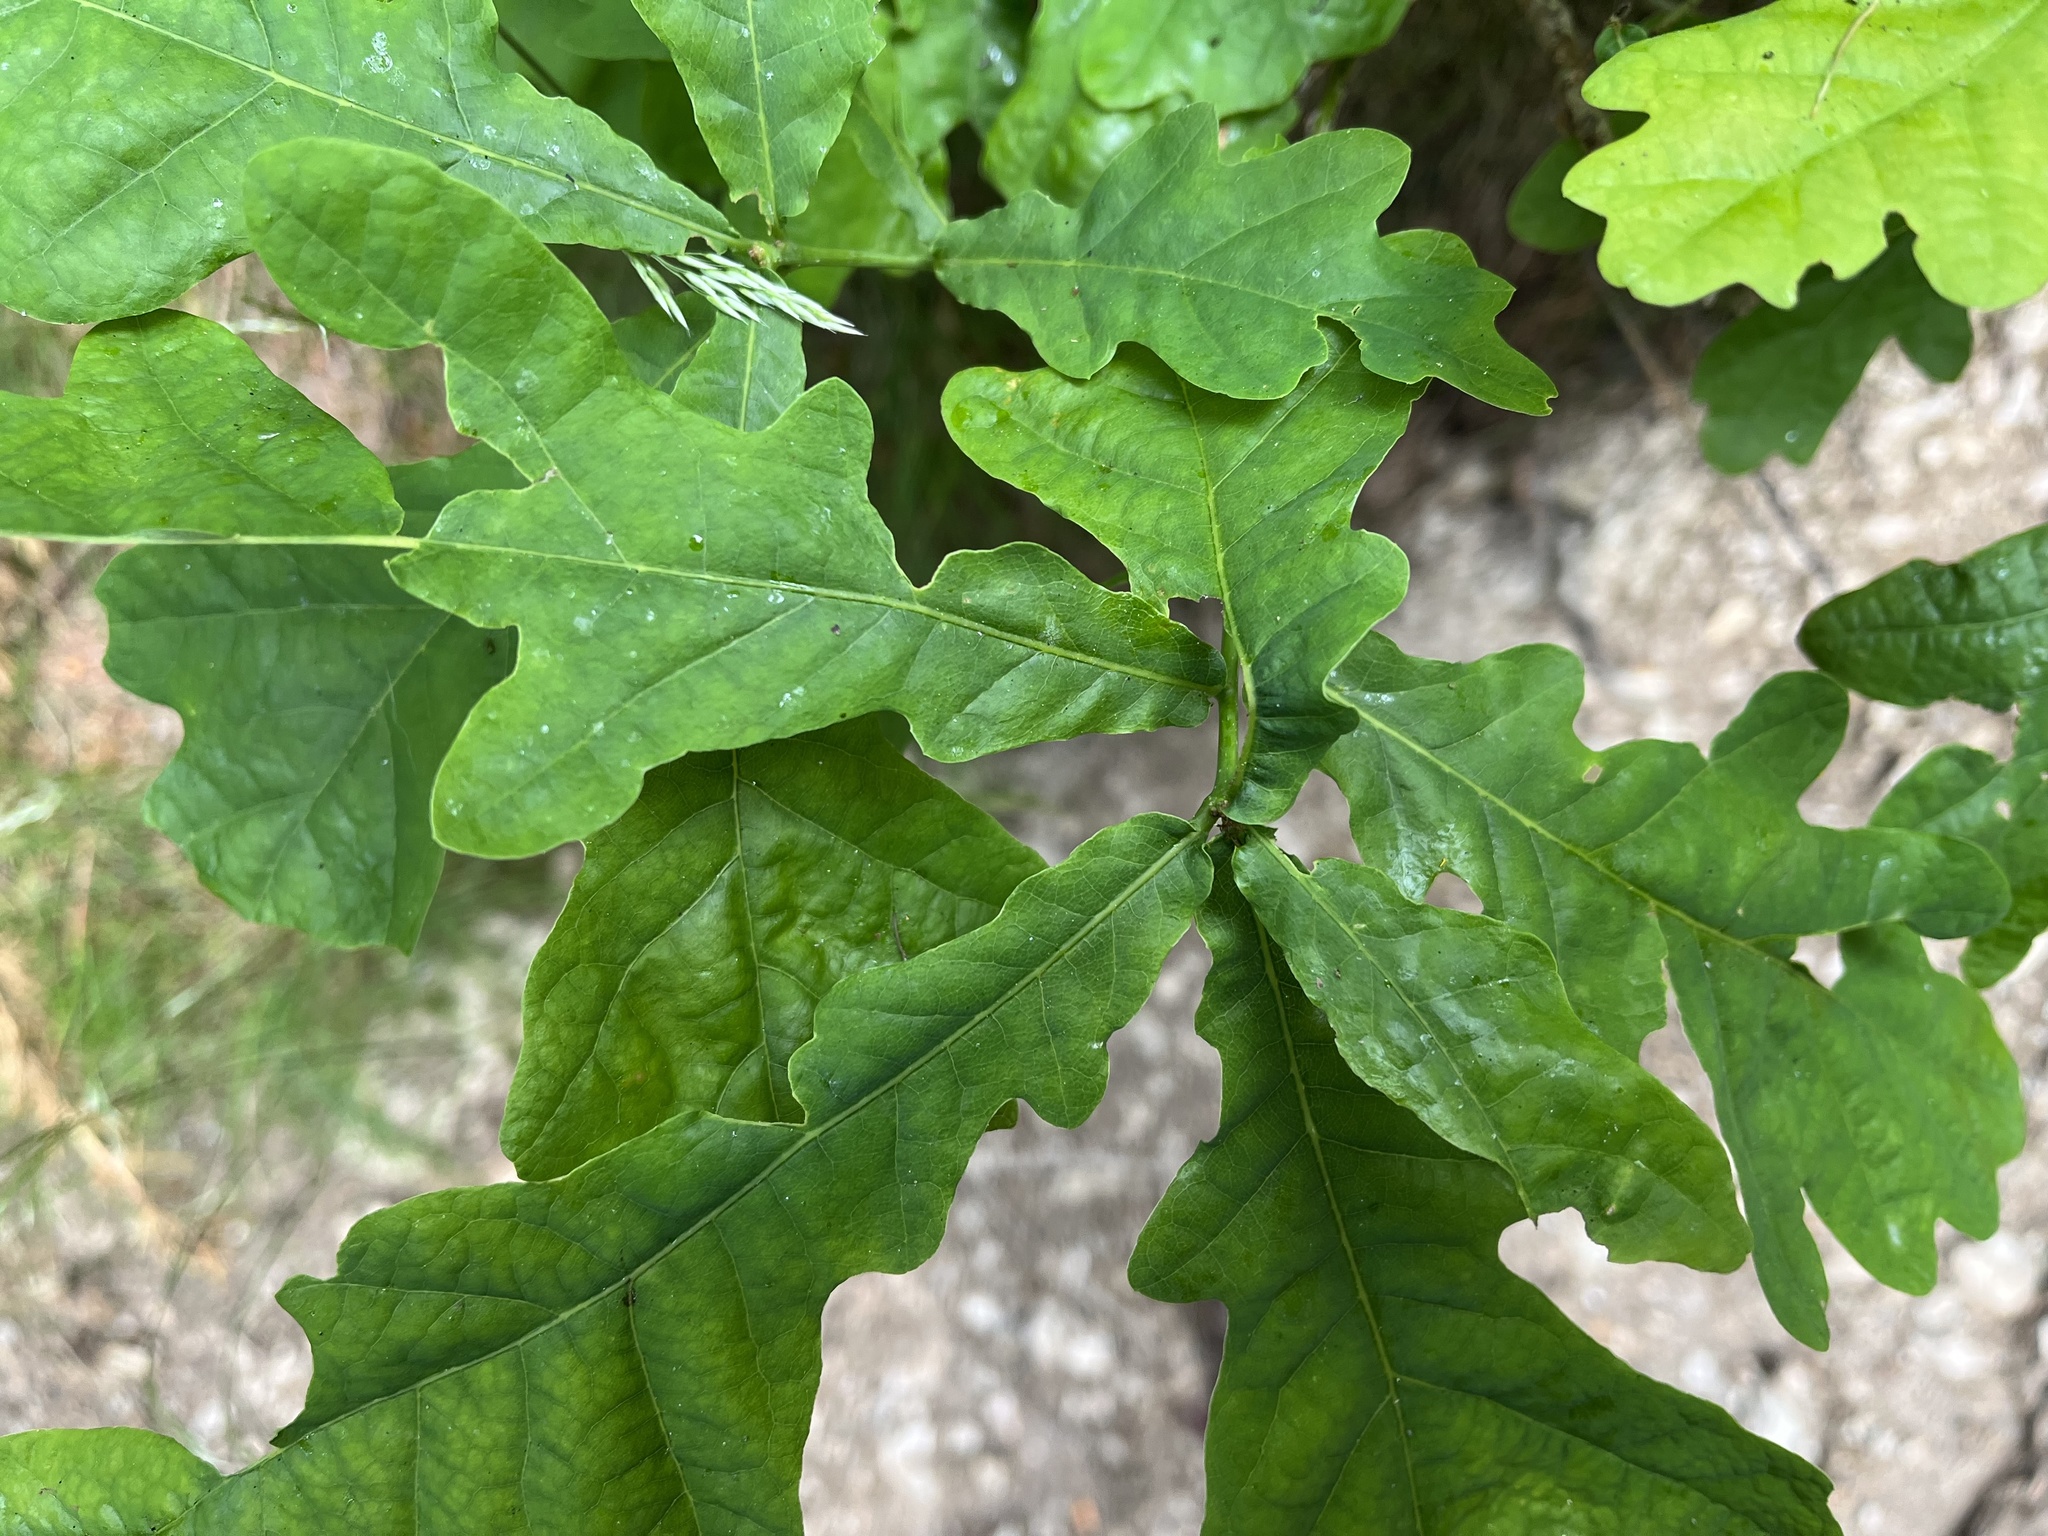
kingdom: Plantae
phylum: Tracheophyta
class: Magnoliopsida
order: Fagales
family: Fagaceae
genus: Quercus
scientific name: Quercus robur
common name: Pedunculate oak
